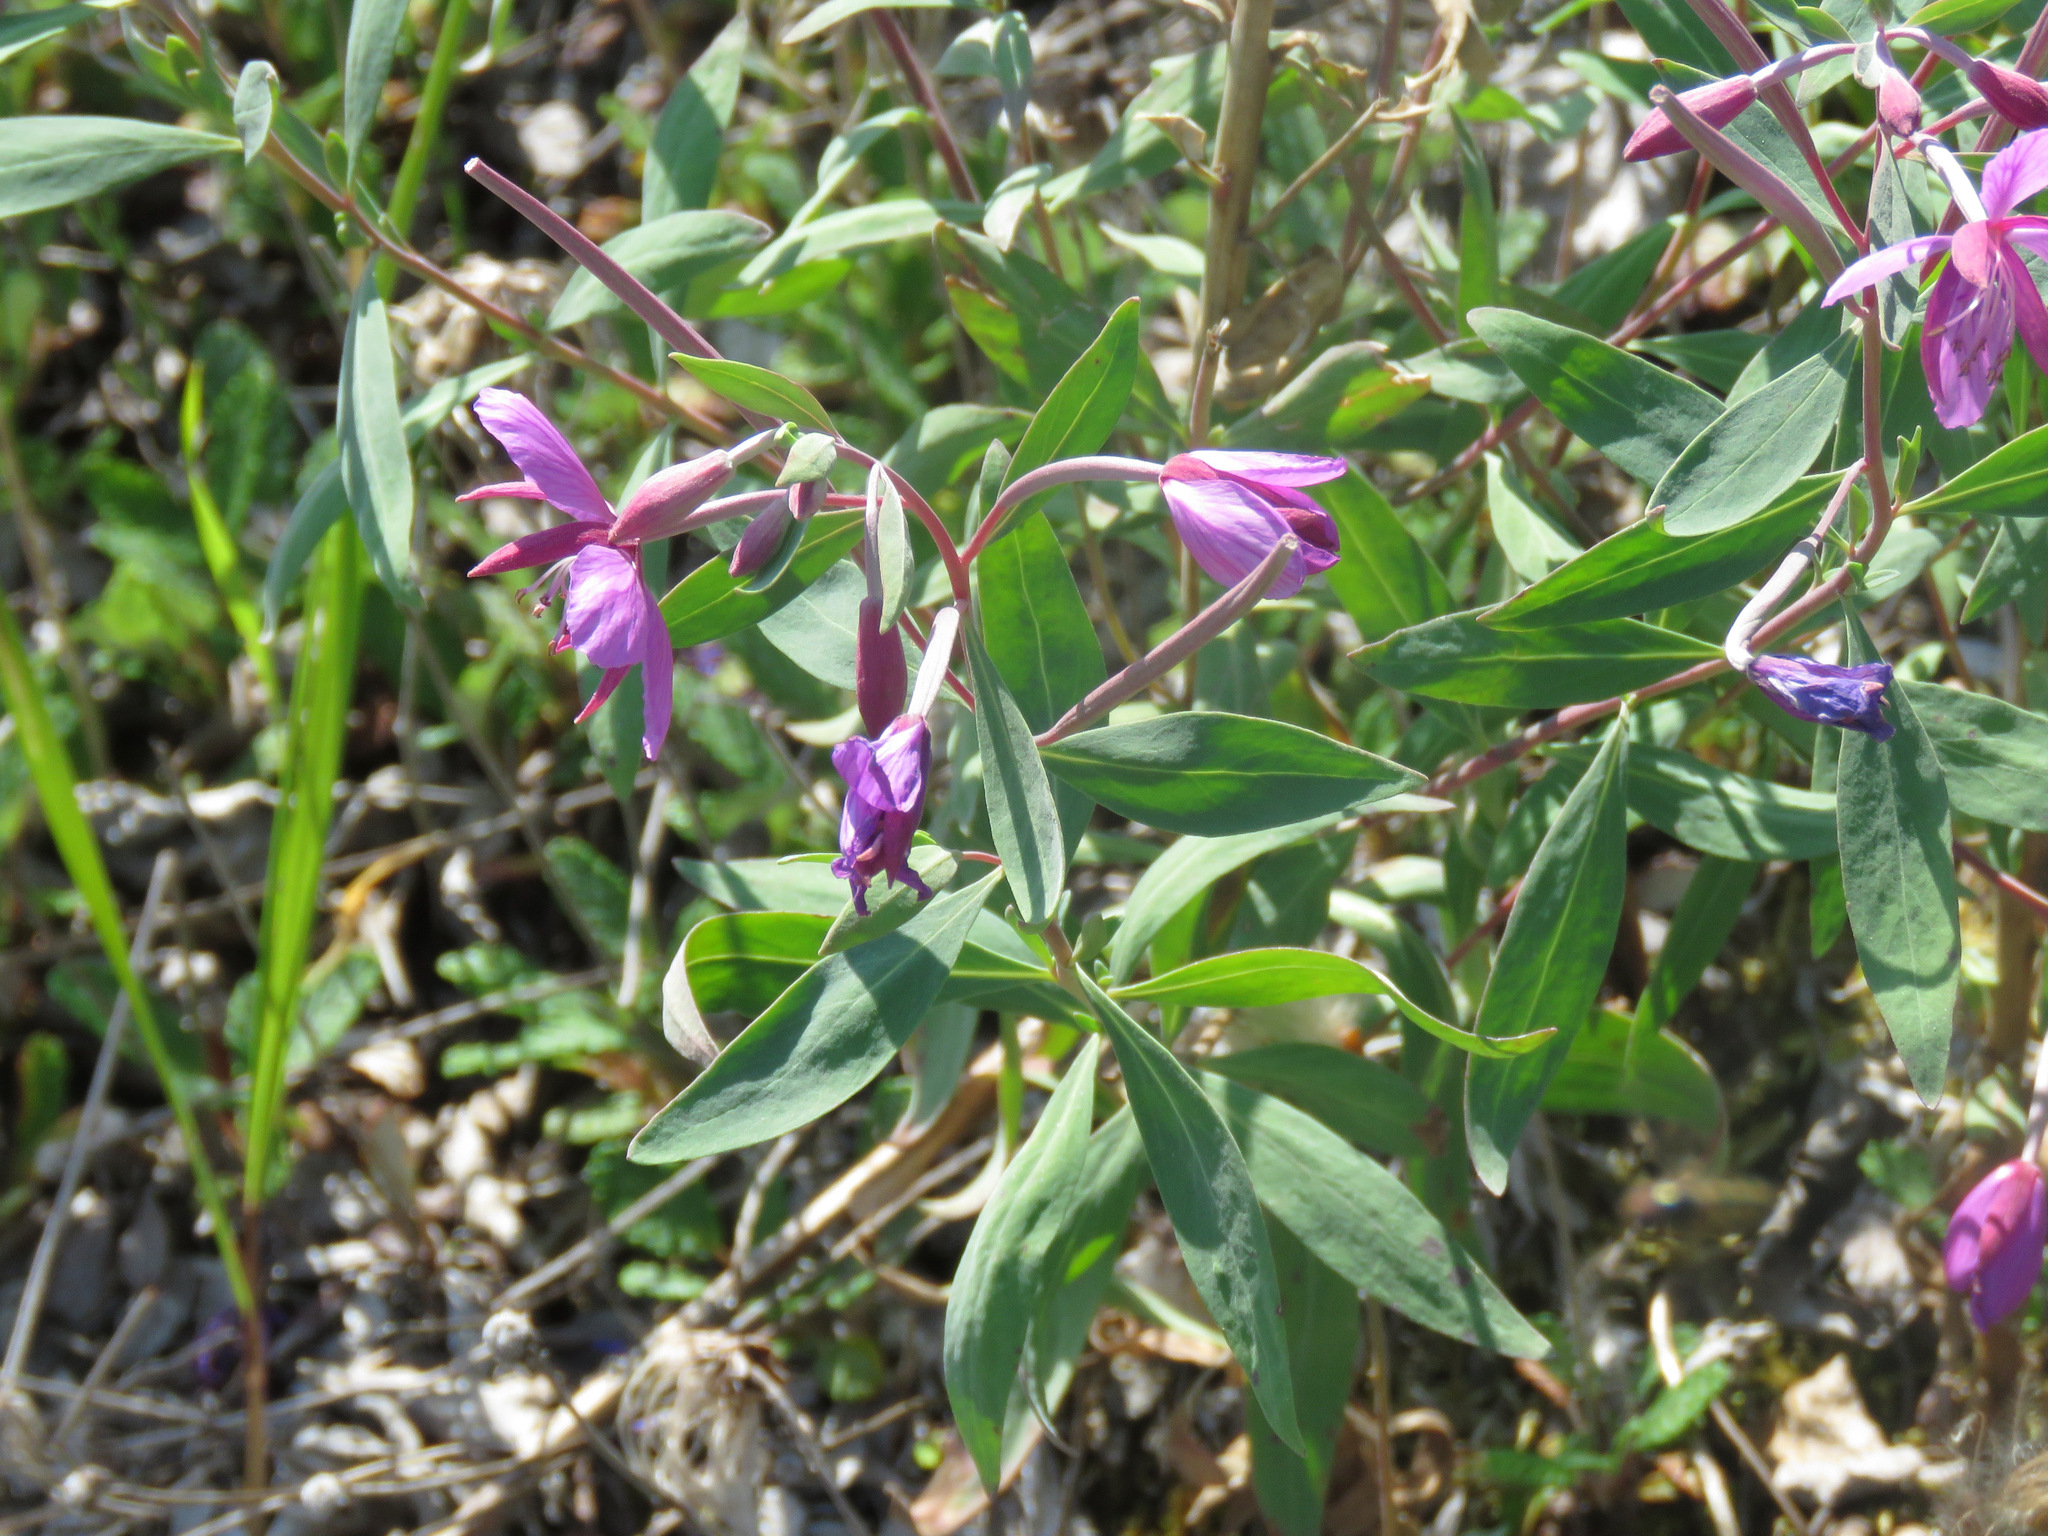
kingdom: Plantae
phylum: Tracheophyta
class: Magnoliopsida
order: Myrtales
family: Onagraceae
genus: Chamaenerion
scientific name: Chamaenerion latifolium
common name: Dwarf fireweed
